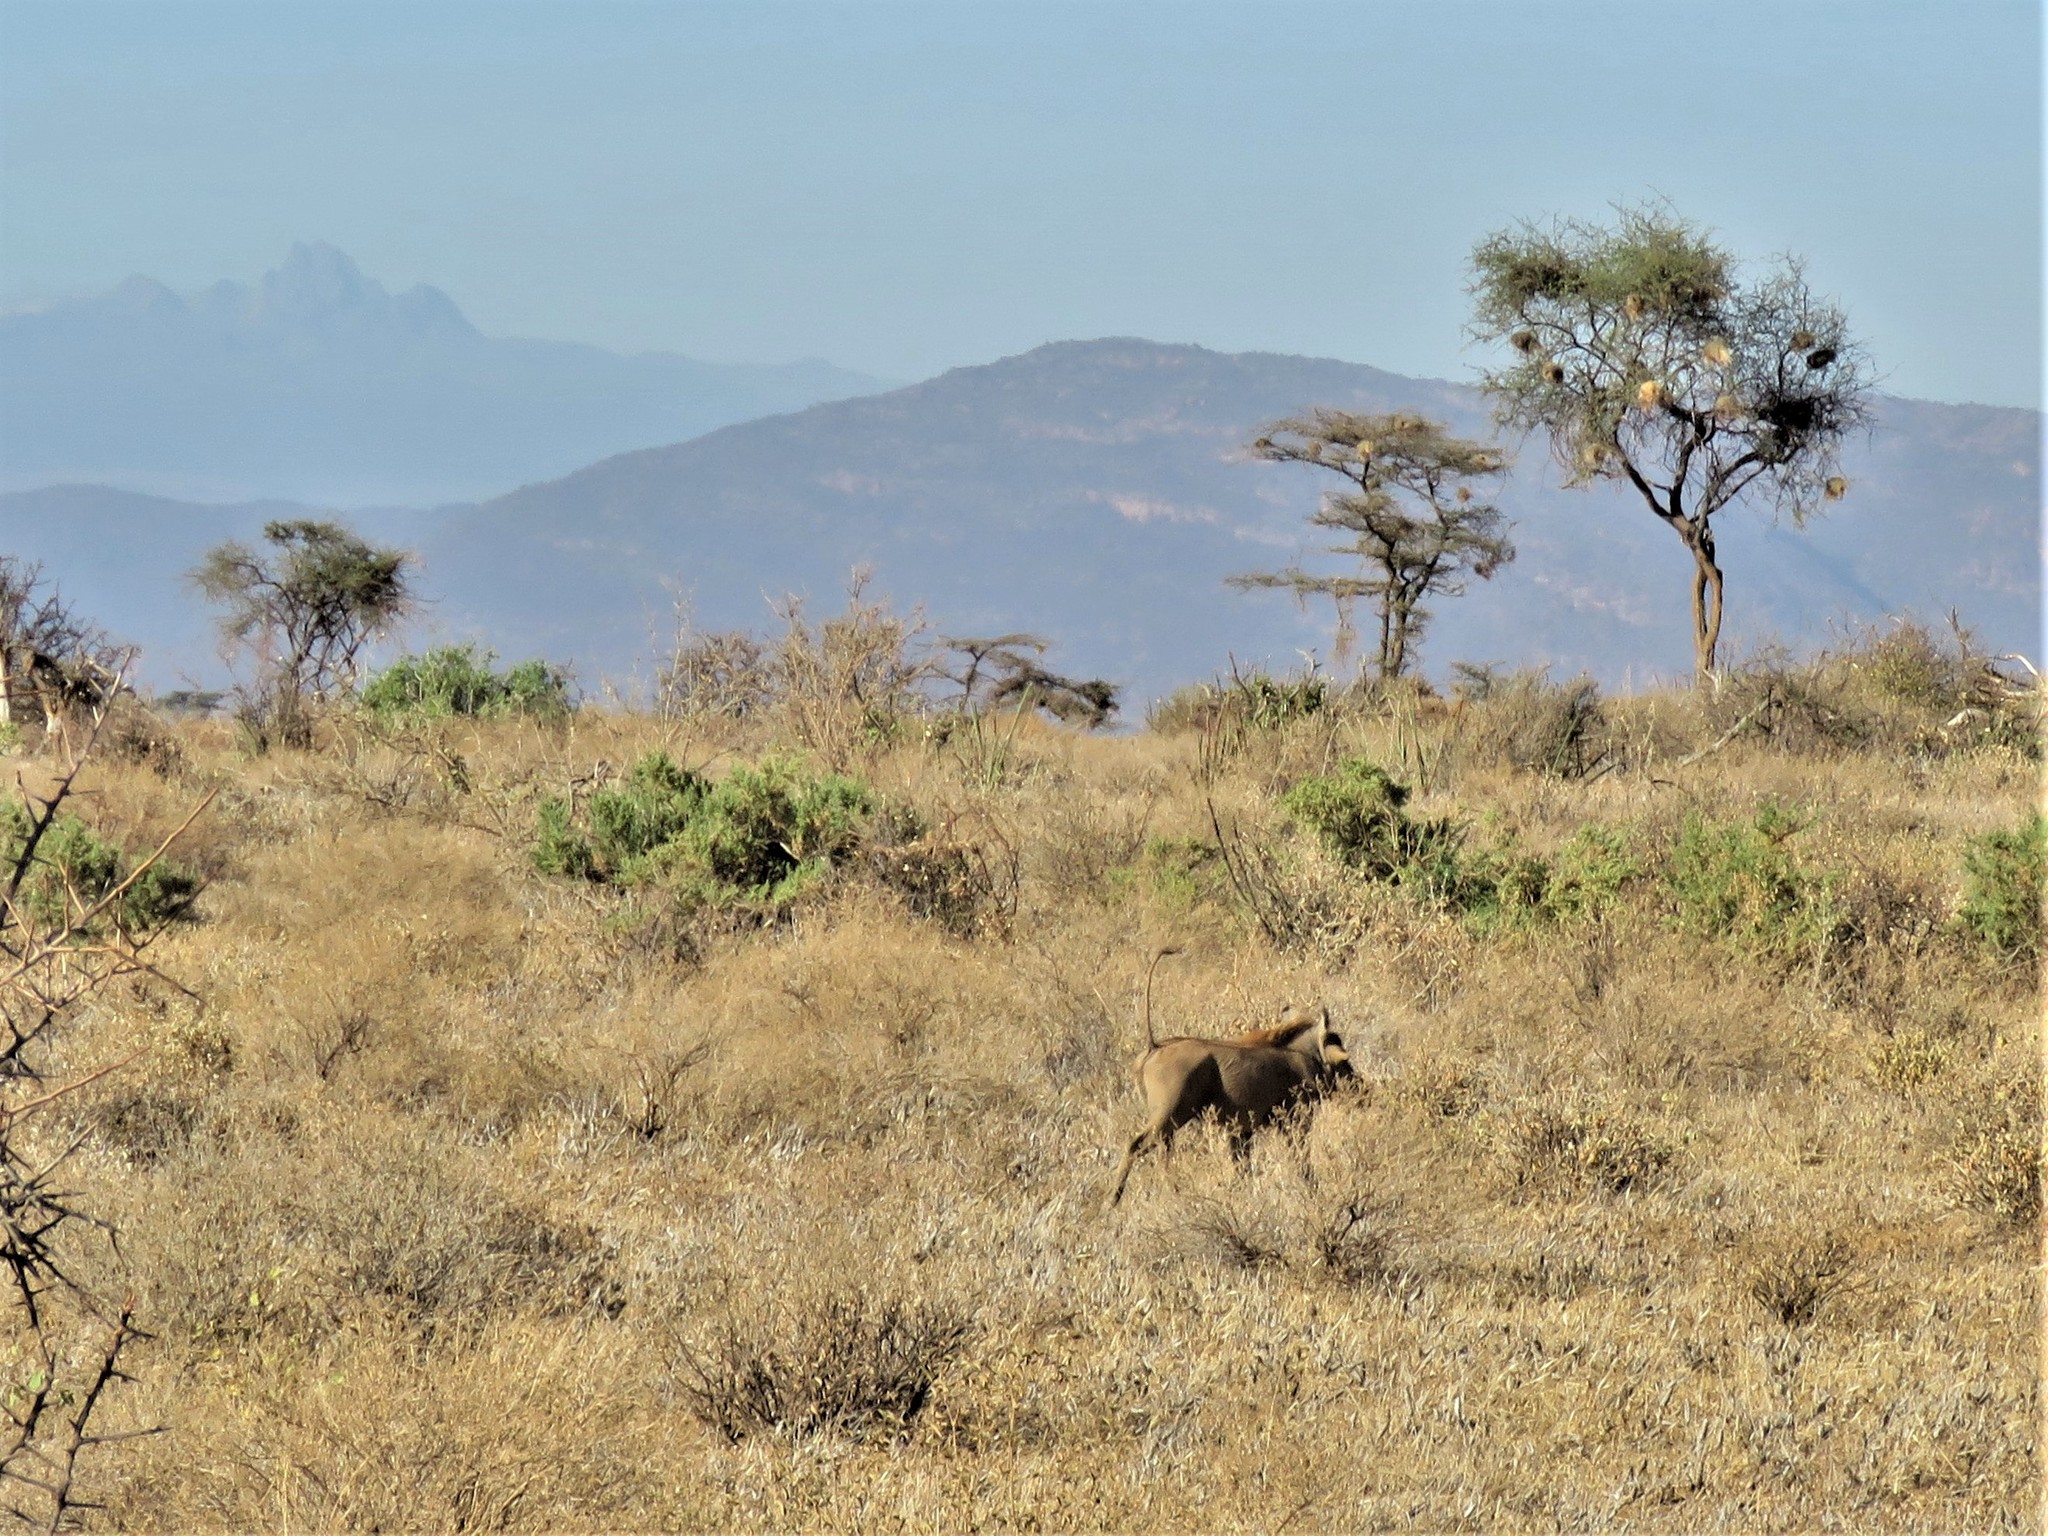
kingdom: Animalia
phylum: Chordata
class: Mammalia
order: Artiodactyla
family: Suidae
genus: Phacochoerus
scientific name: Phacochoerus aethiopicus
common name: Desert warthog
